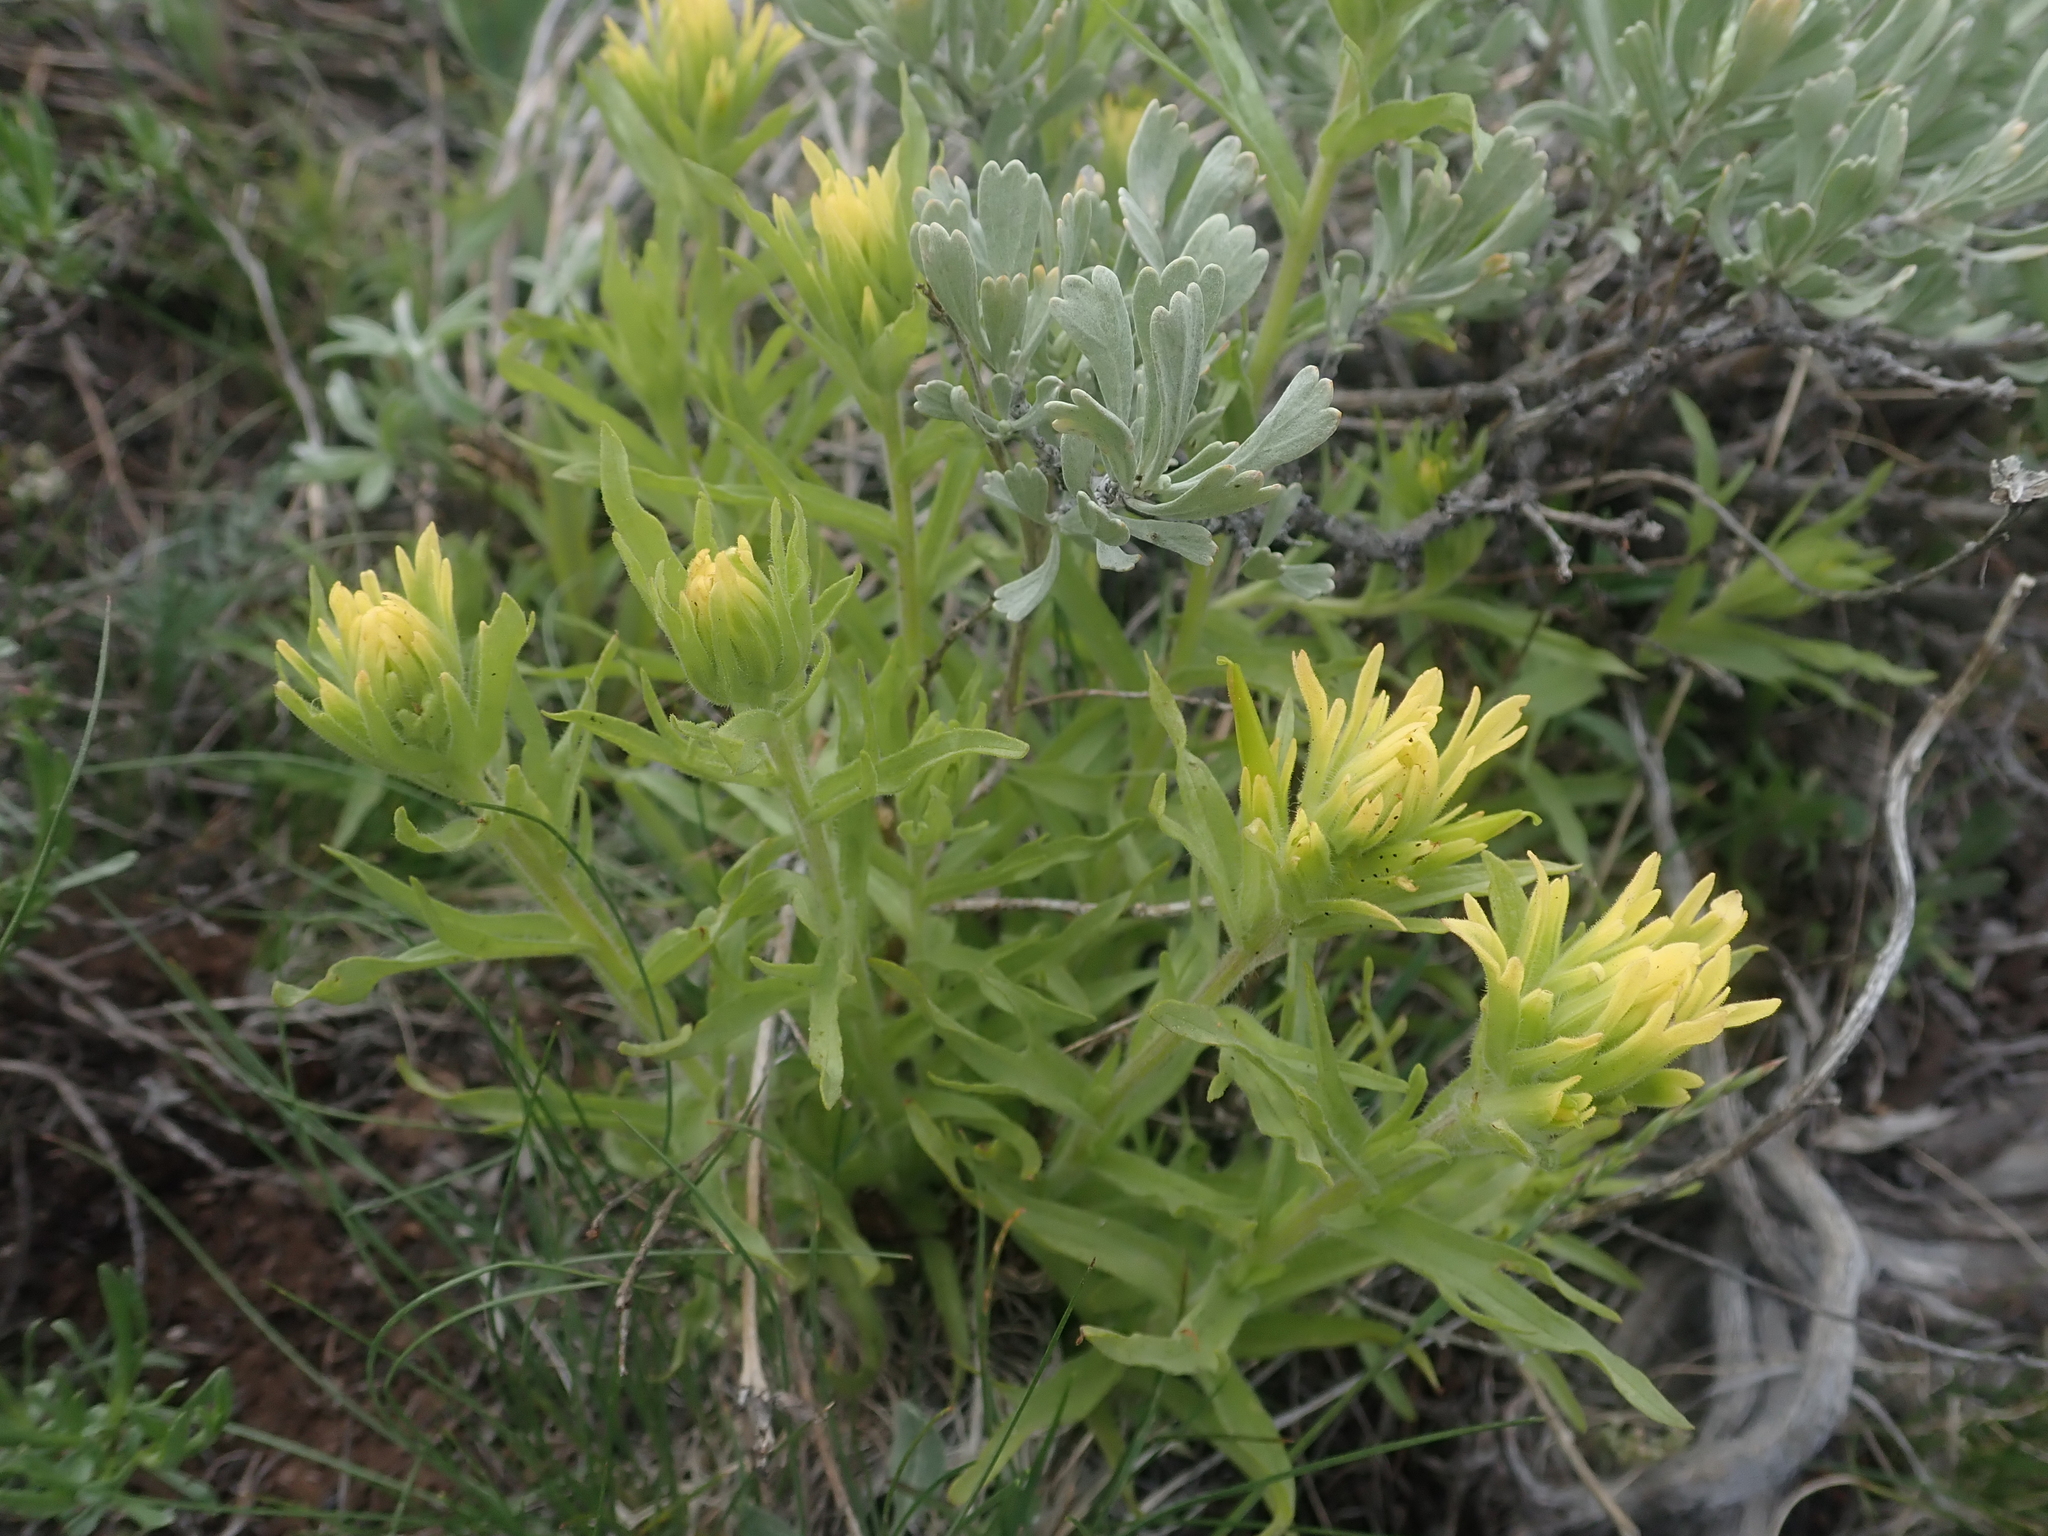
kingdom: Plantae
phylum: Tracheophyta
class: Magnoliopsida
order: Lamiales
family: Orobanchaceae
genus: Castilleja
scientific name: Castilleja applegatei
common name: Wavy-leaf paintbrush
